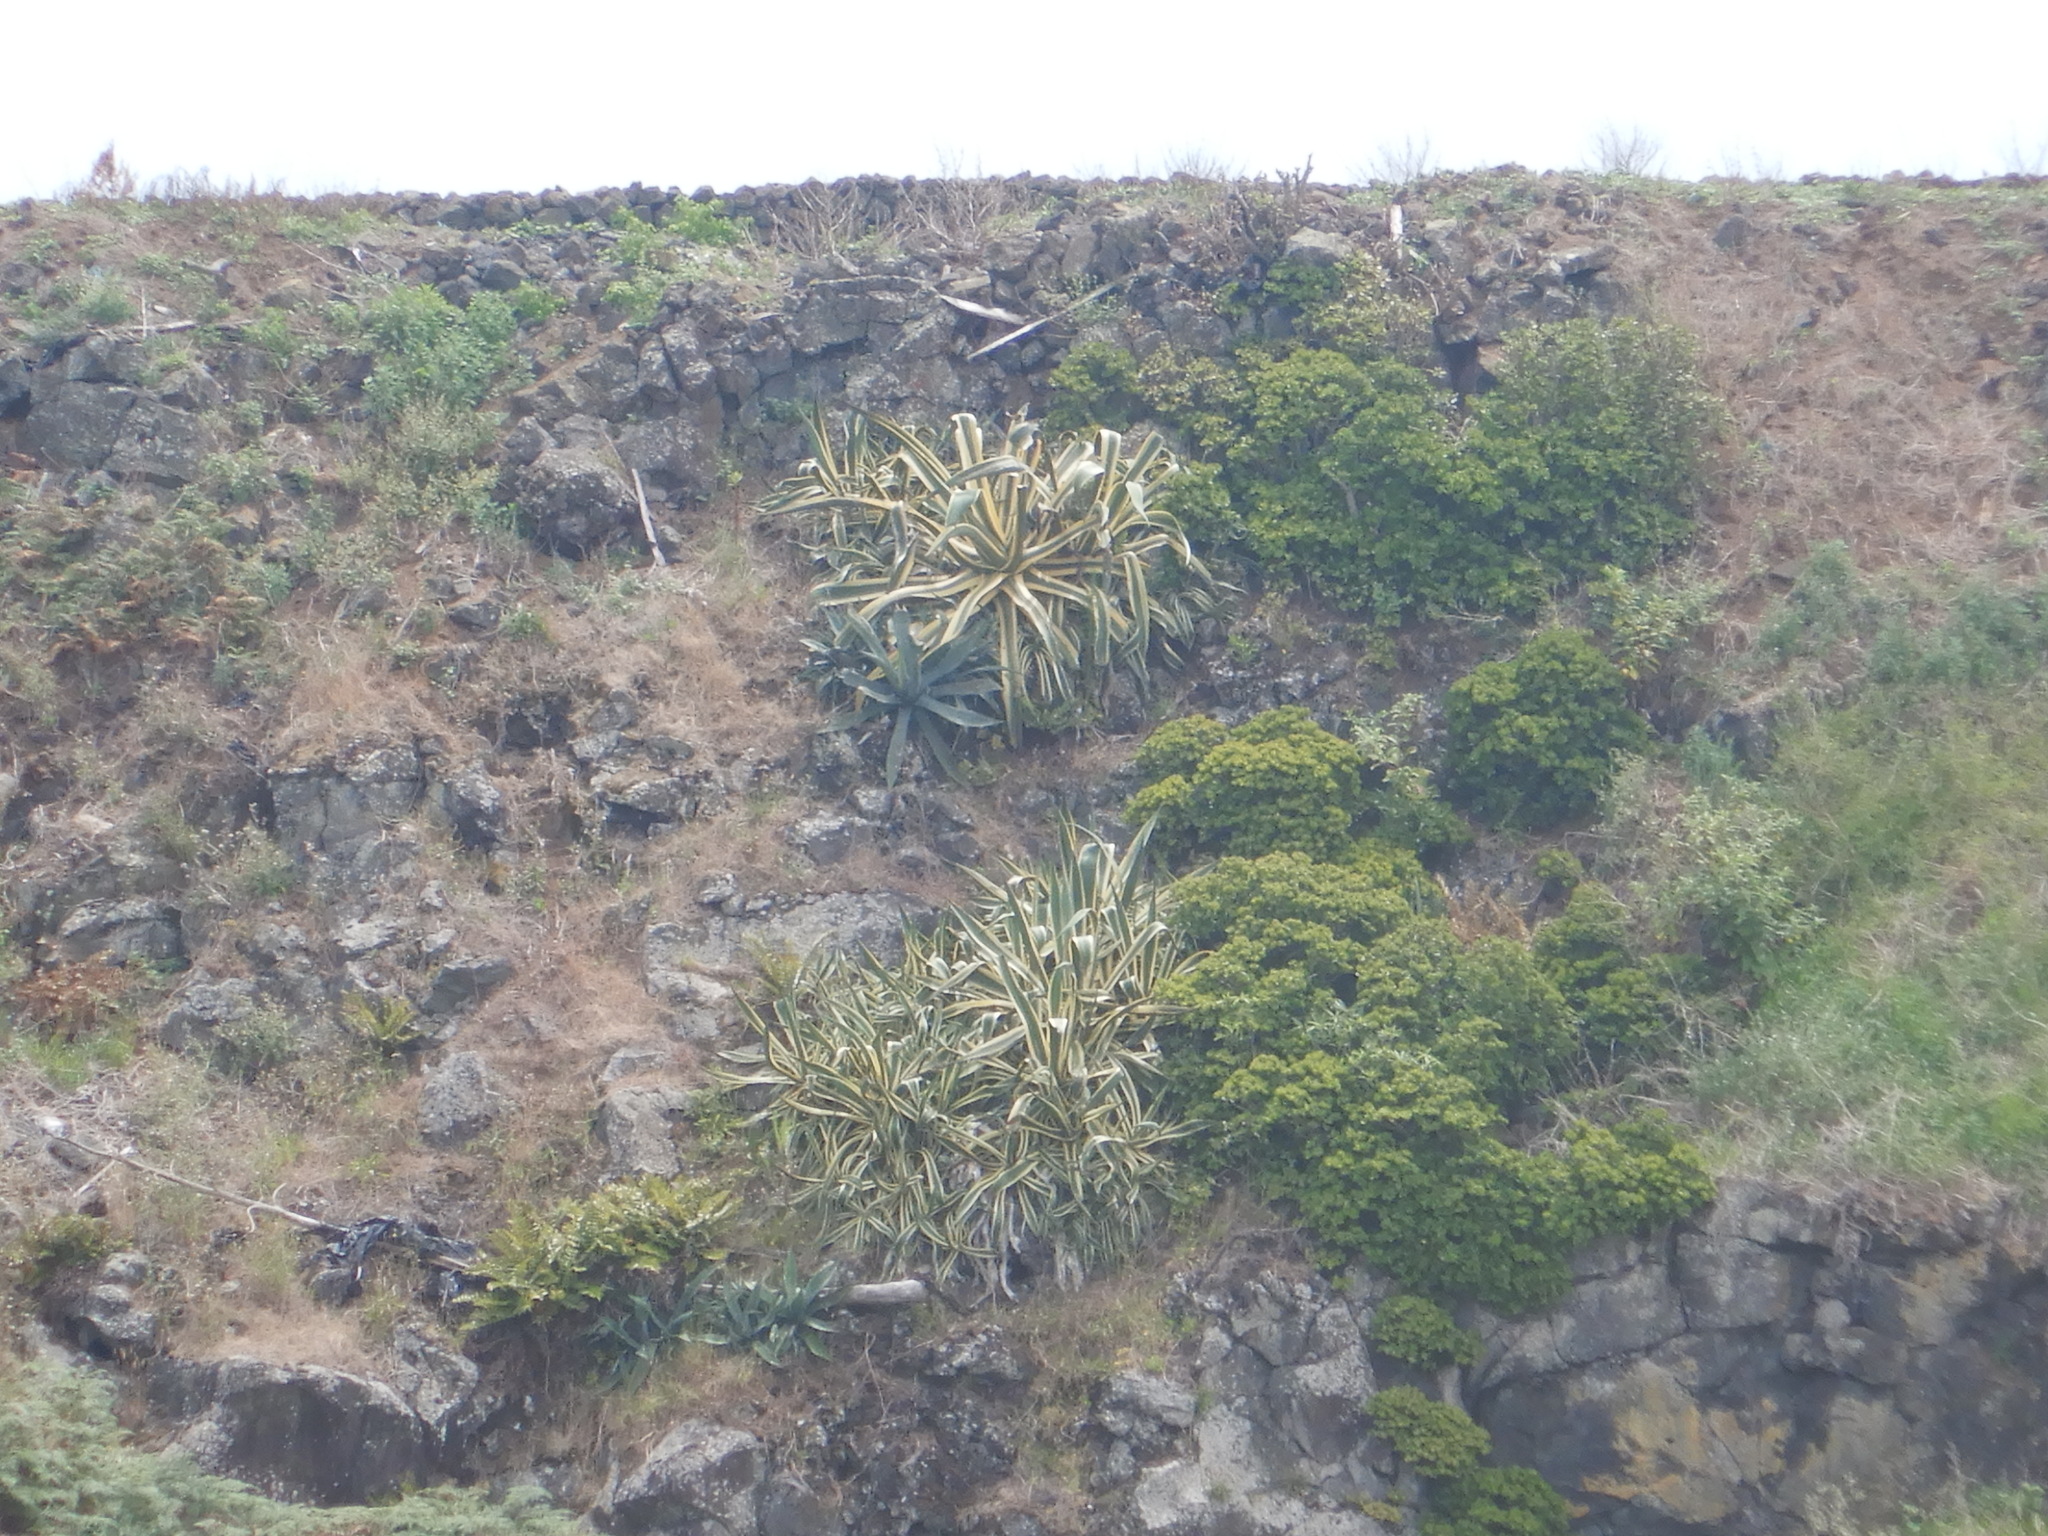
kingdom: Plantae
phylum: Tracheophyta
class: Liliopsida
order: Asparagales
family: Asparagaceae
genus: Agave
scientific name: Agave americana
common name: Centuryplant
